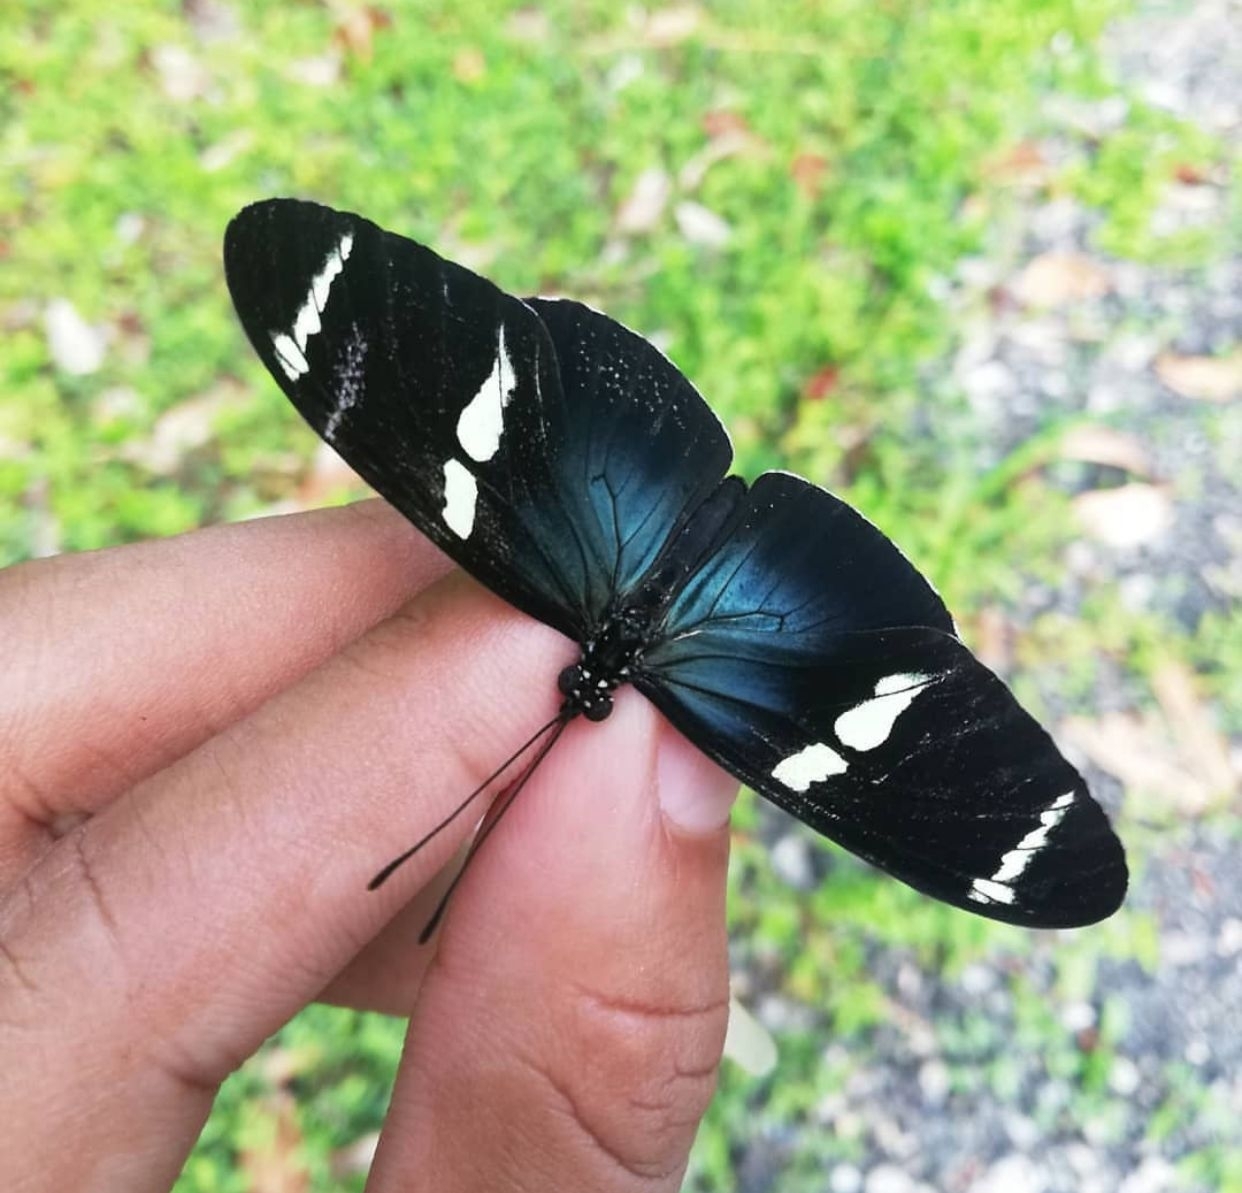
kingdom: Animalia
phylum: Arthropoda
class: Insecta
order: Lepidoptera
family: Nymphalidae
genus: Heliconius
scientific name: Heliconius sara
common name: Sara longwing
